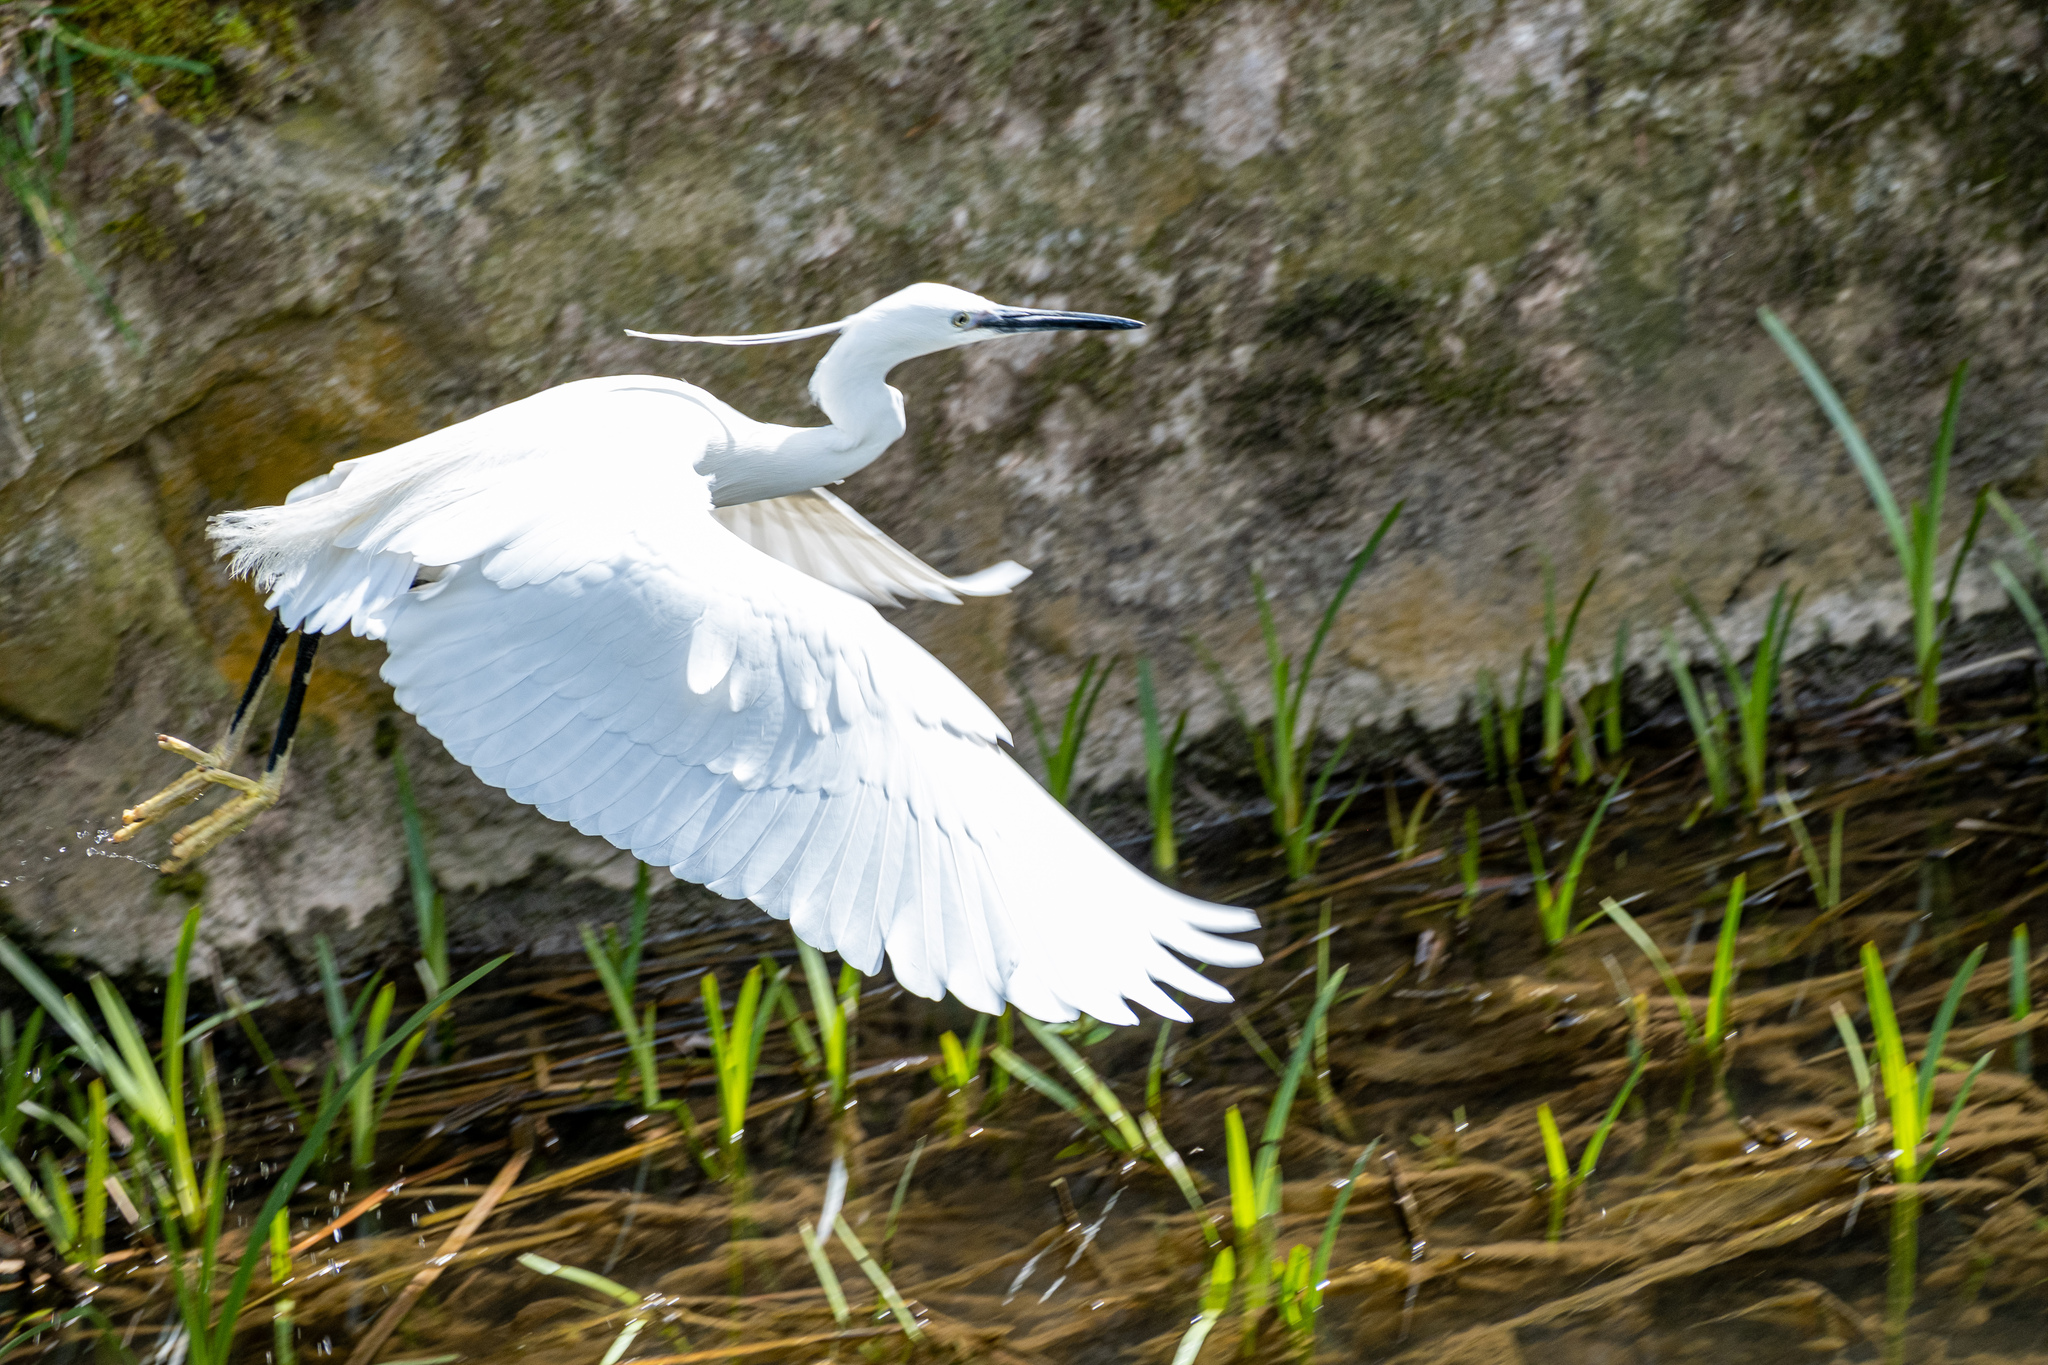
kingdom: Animalia
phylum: Chordata
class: Aves
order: Pelecaniformes
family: Ardeidae
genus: Egretta
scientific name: Egretta garzetta
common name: Little egret
